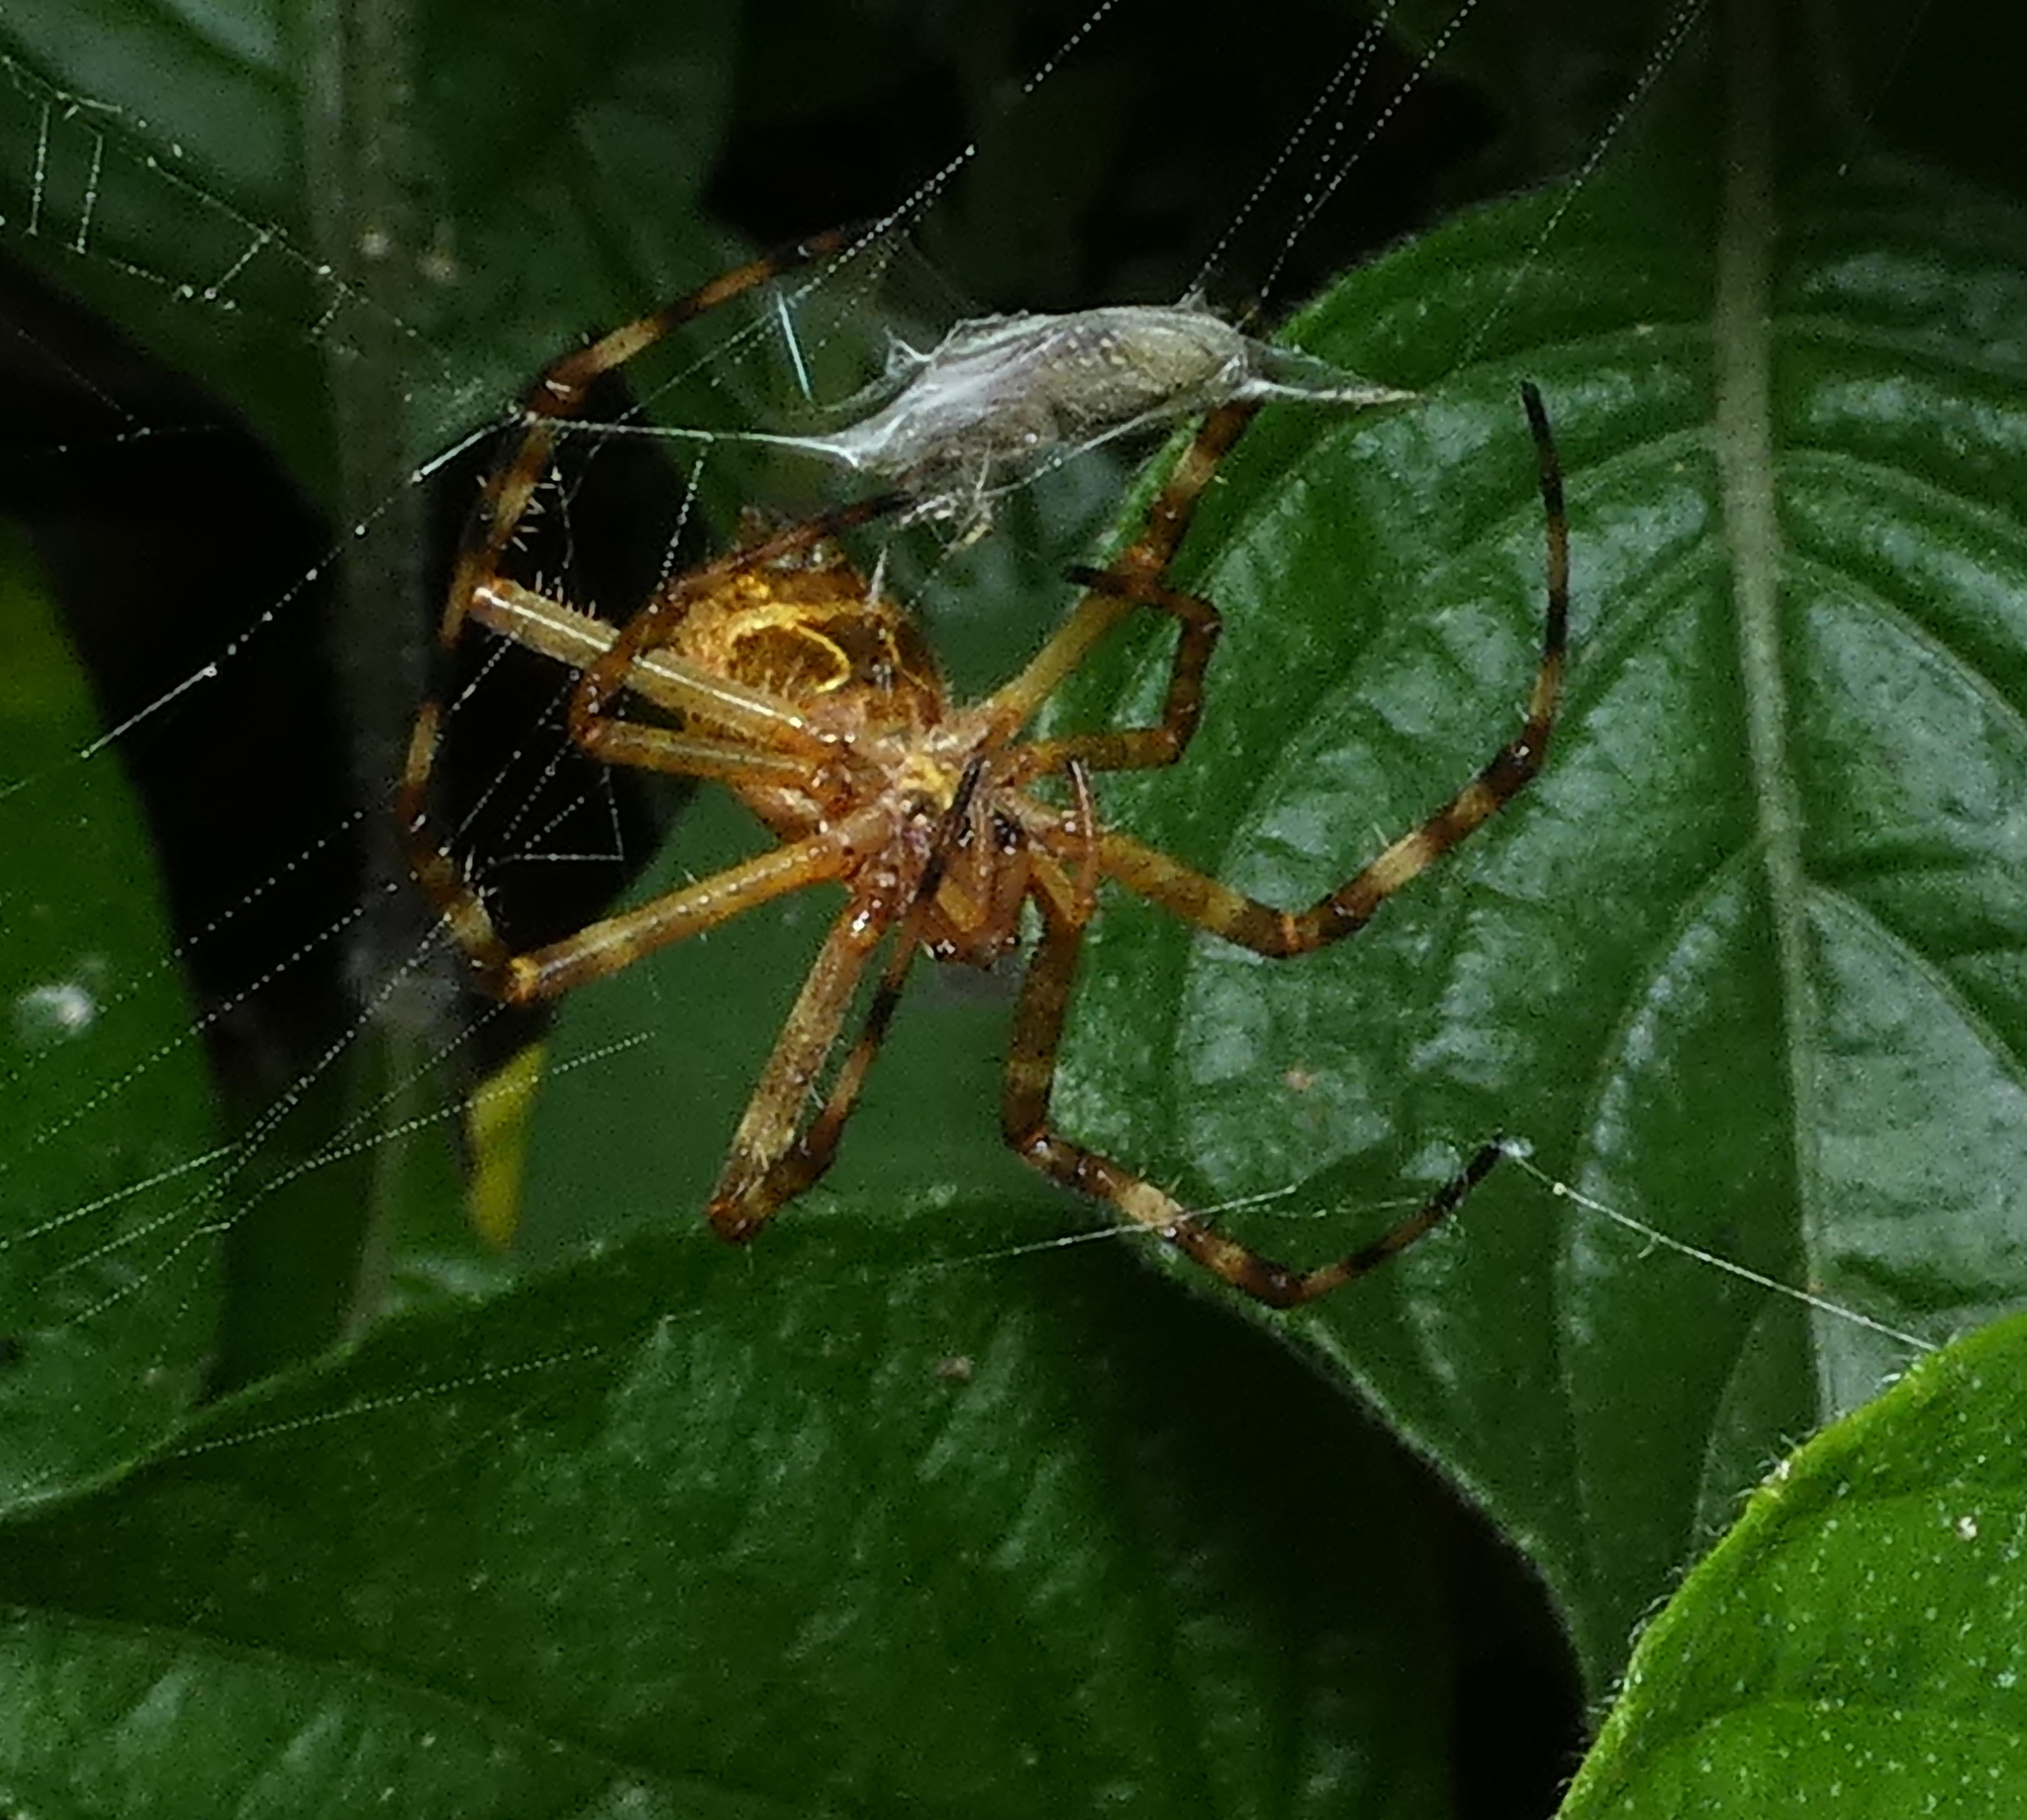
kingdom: Animalia
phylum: Arthropoda
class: Arachnida
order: Araneae
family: Araneidae
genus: Argiope
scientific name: Argiope argentata
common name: Orb weavers
